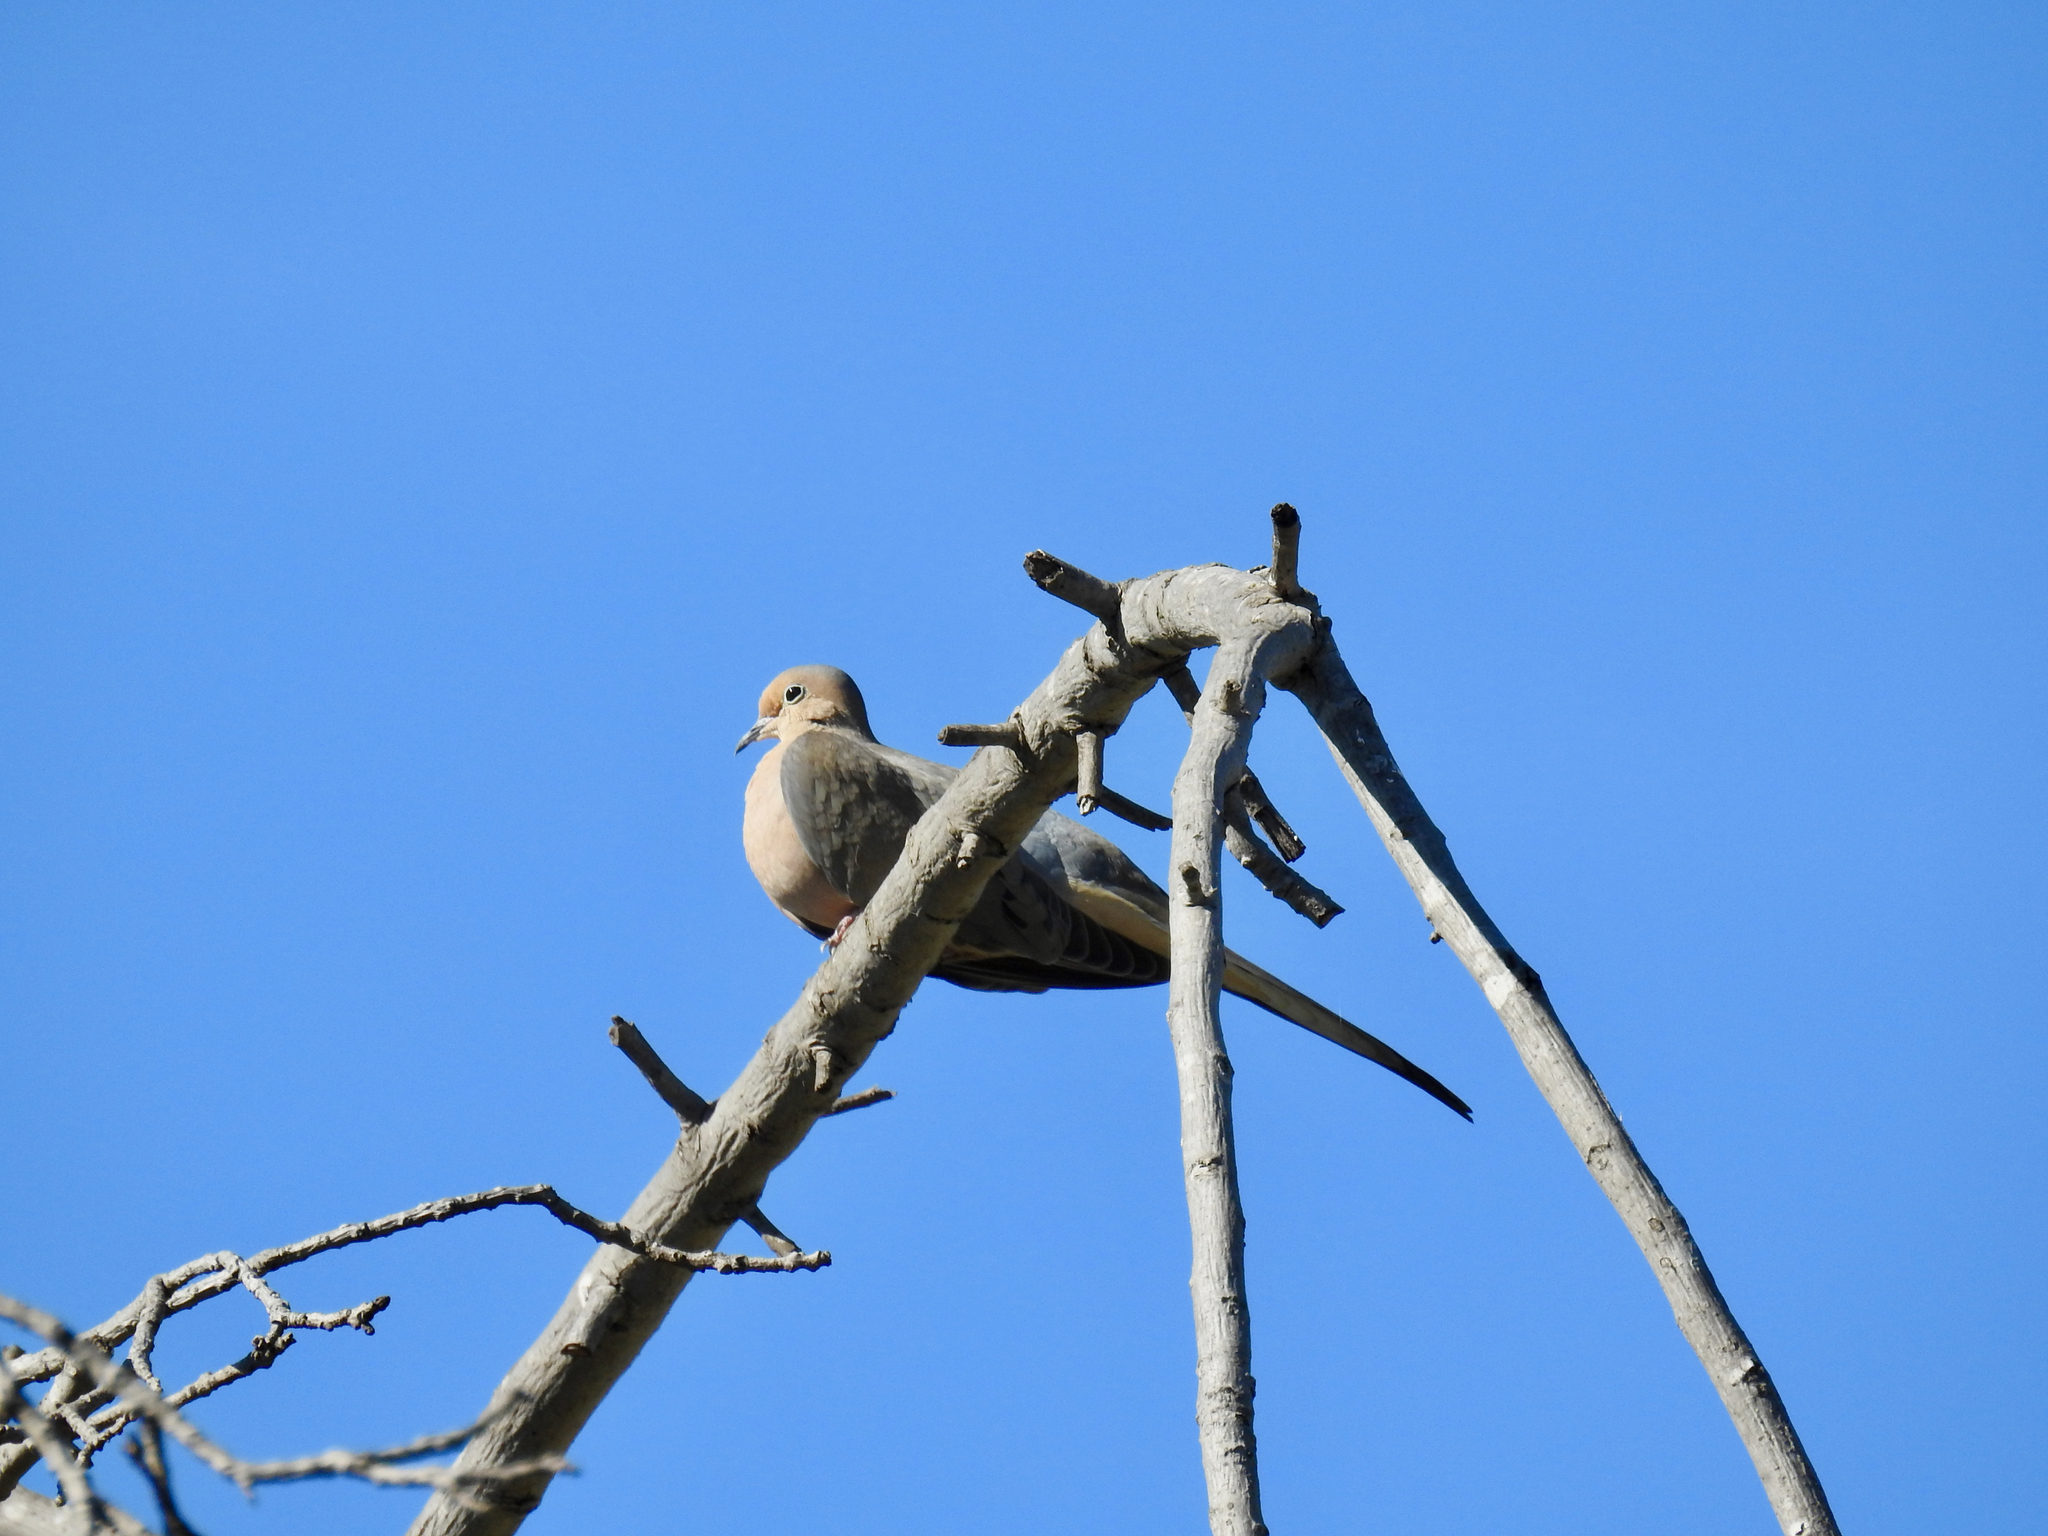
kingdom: Animalia
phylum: Chordata
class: Aves
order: Columbiformes
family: Columbidae
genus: Zenaida
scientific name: Zenaida macroura
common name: Mourning dove
